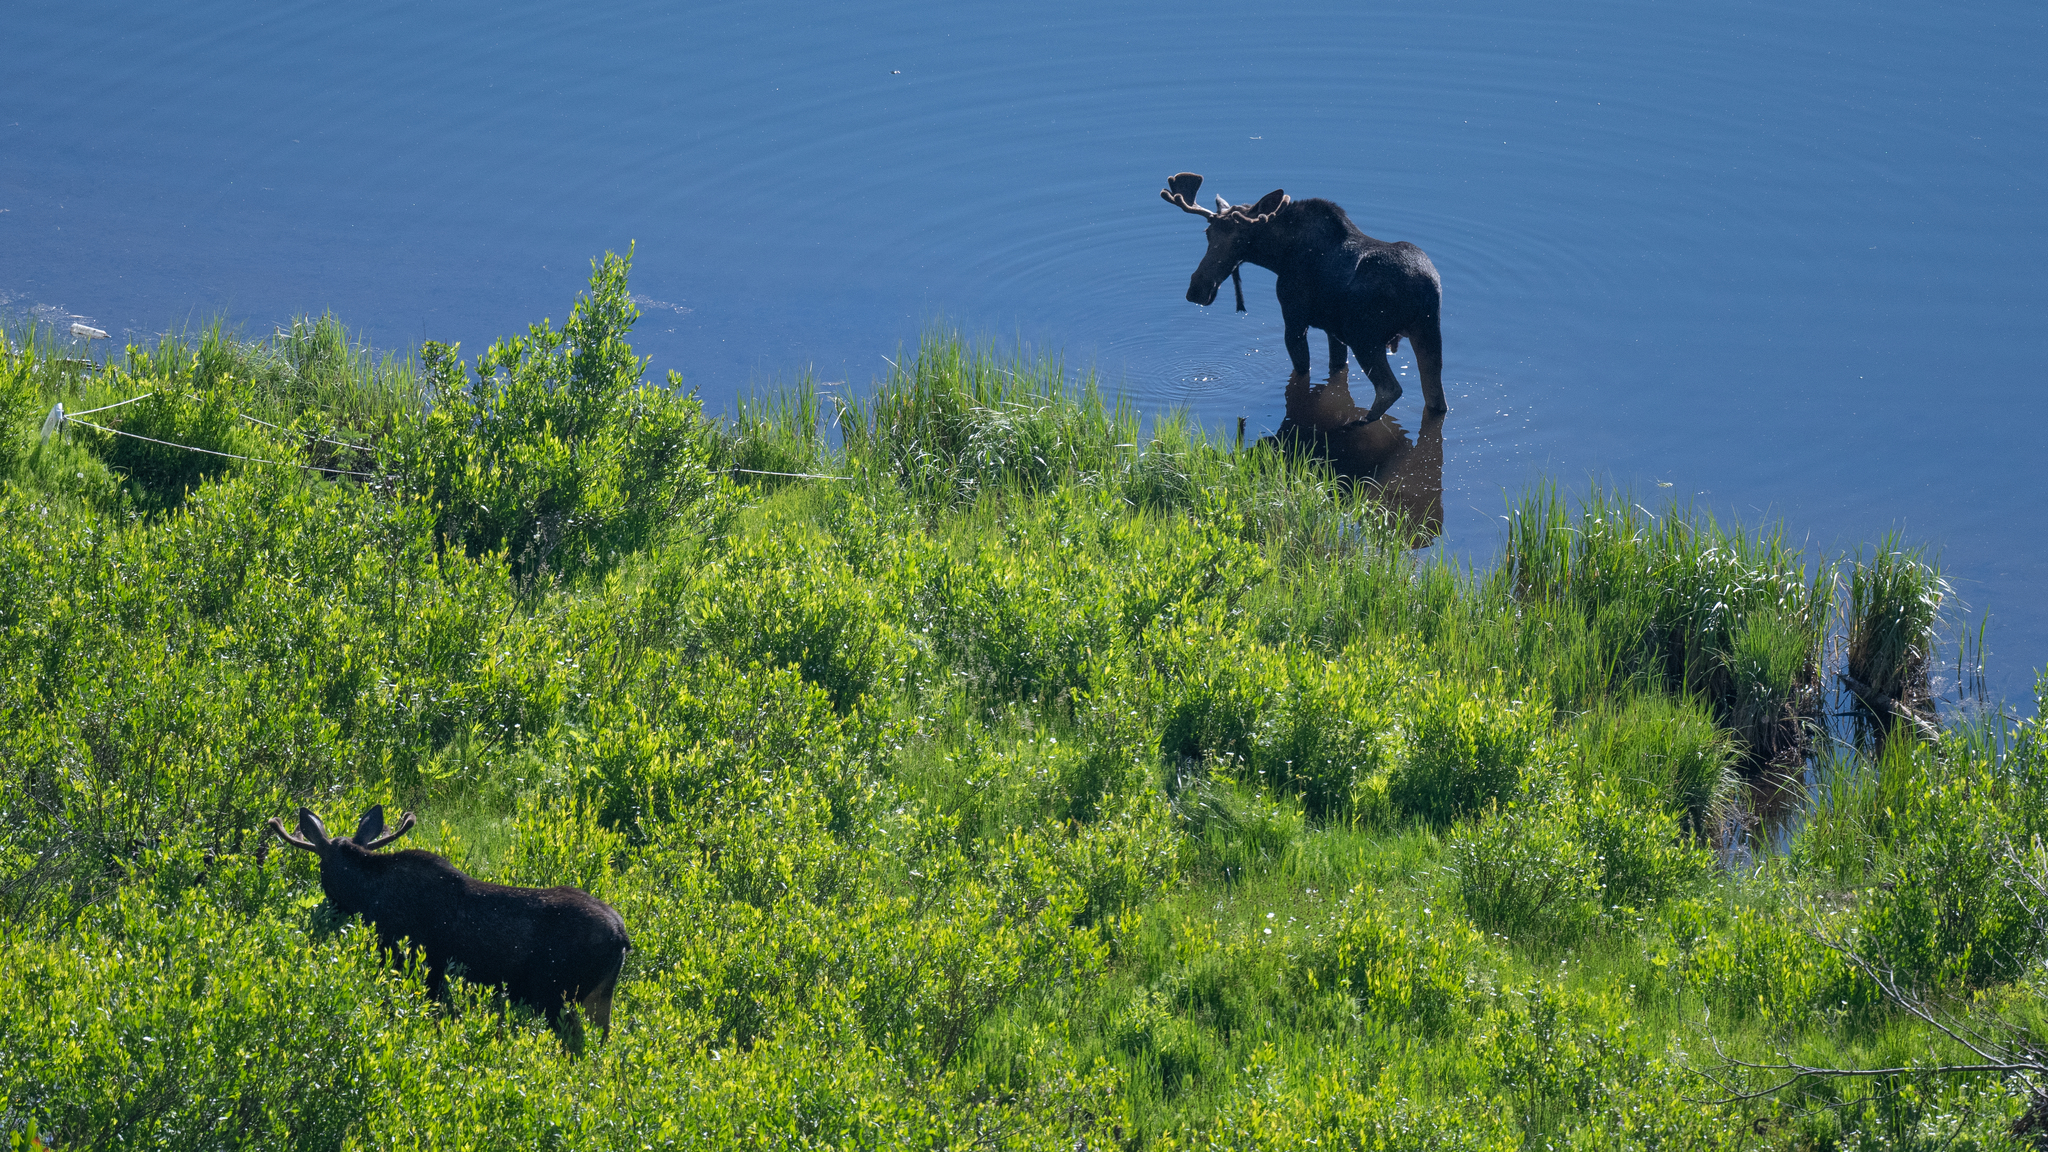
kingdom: Animalia
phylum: Chordata
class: Mammalia
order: Artiodactyla
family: Cervidae
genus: Alces
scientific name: Alces americanus
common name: Moose
